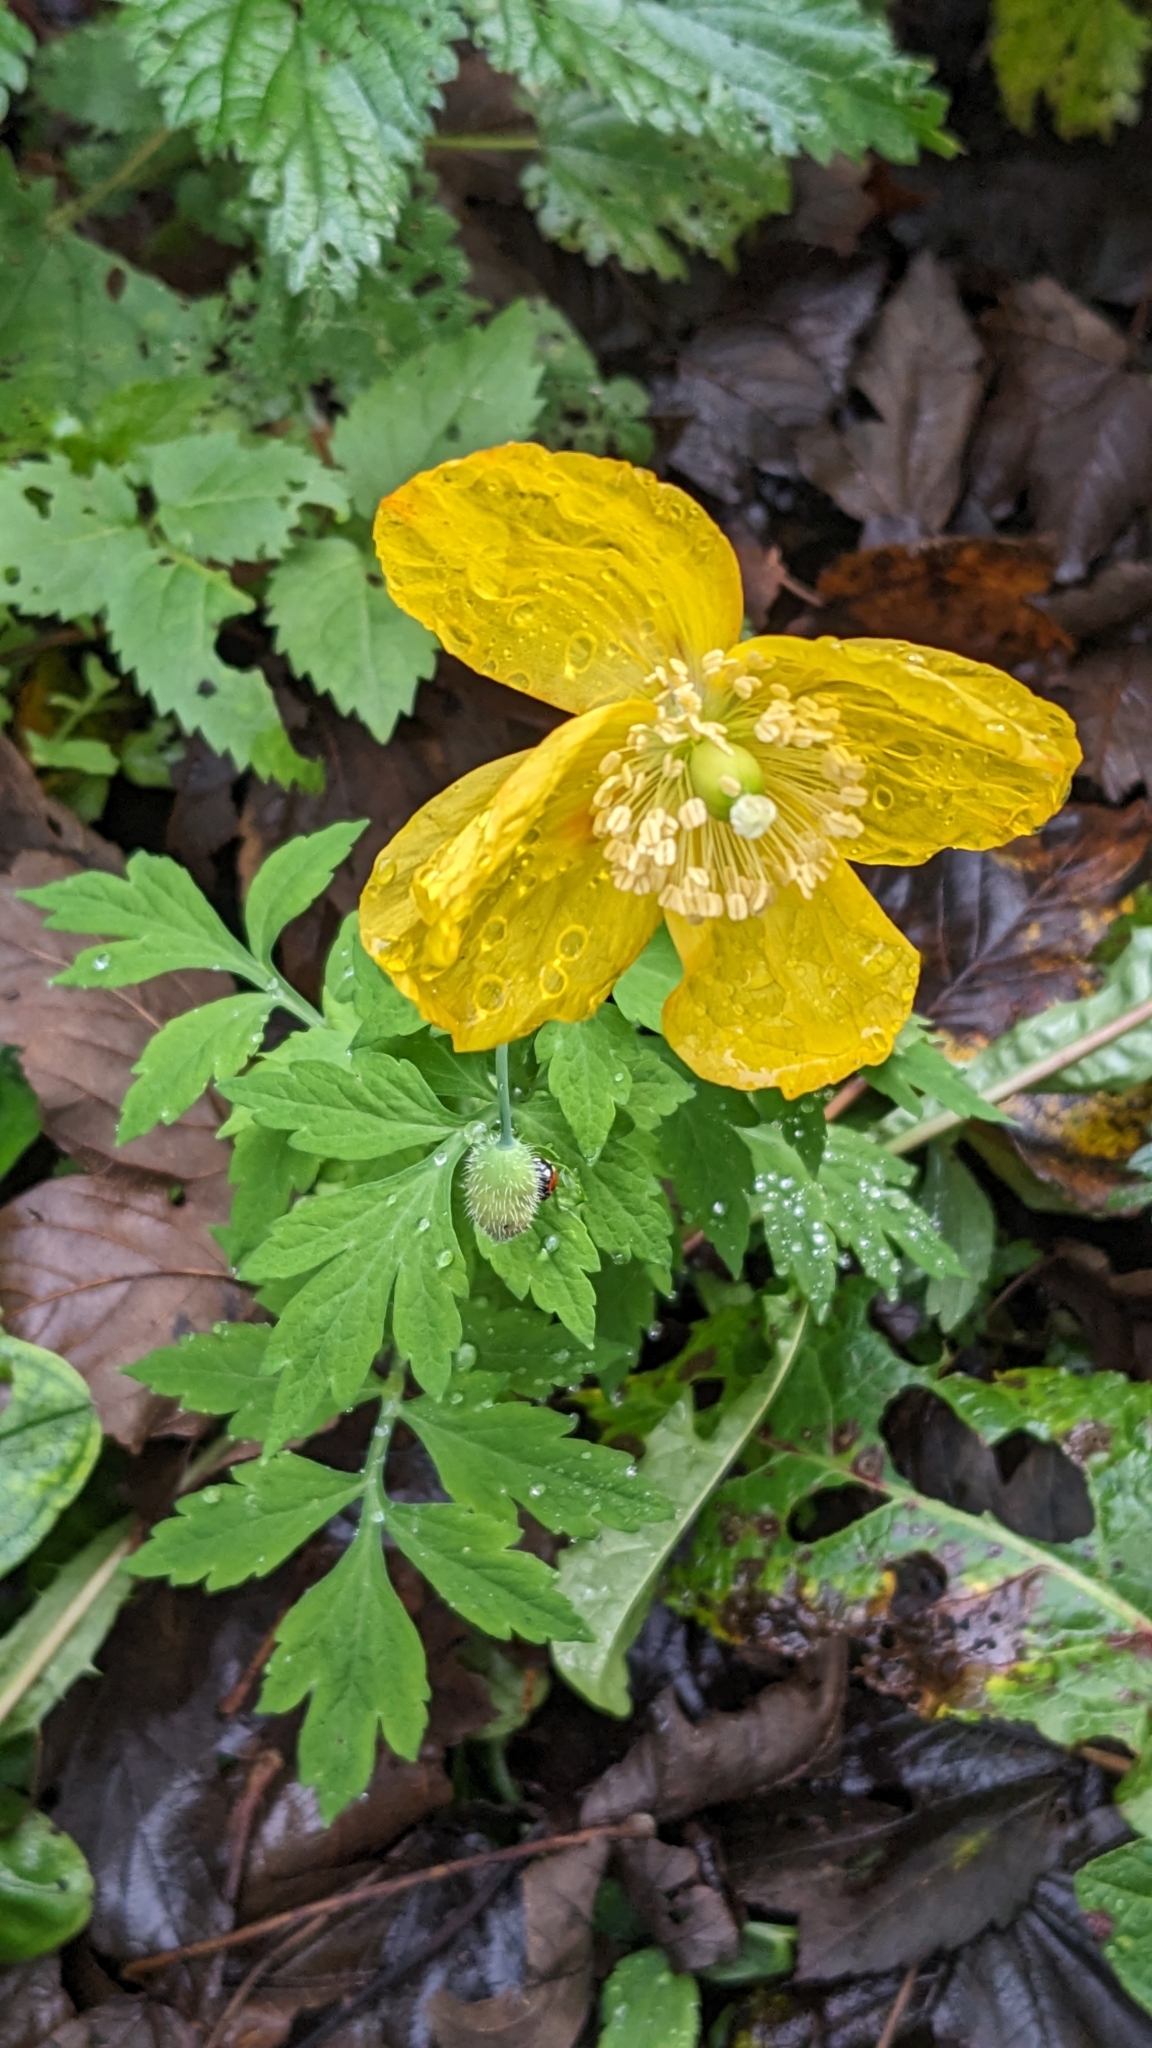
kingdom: Plantae
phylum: Tracheophyta
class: Magnoliopsida
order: Ranunculales
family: Papaveraceae
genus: Papaver
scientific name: Papaver cambricum
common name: Poppy
